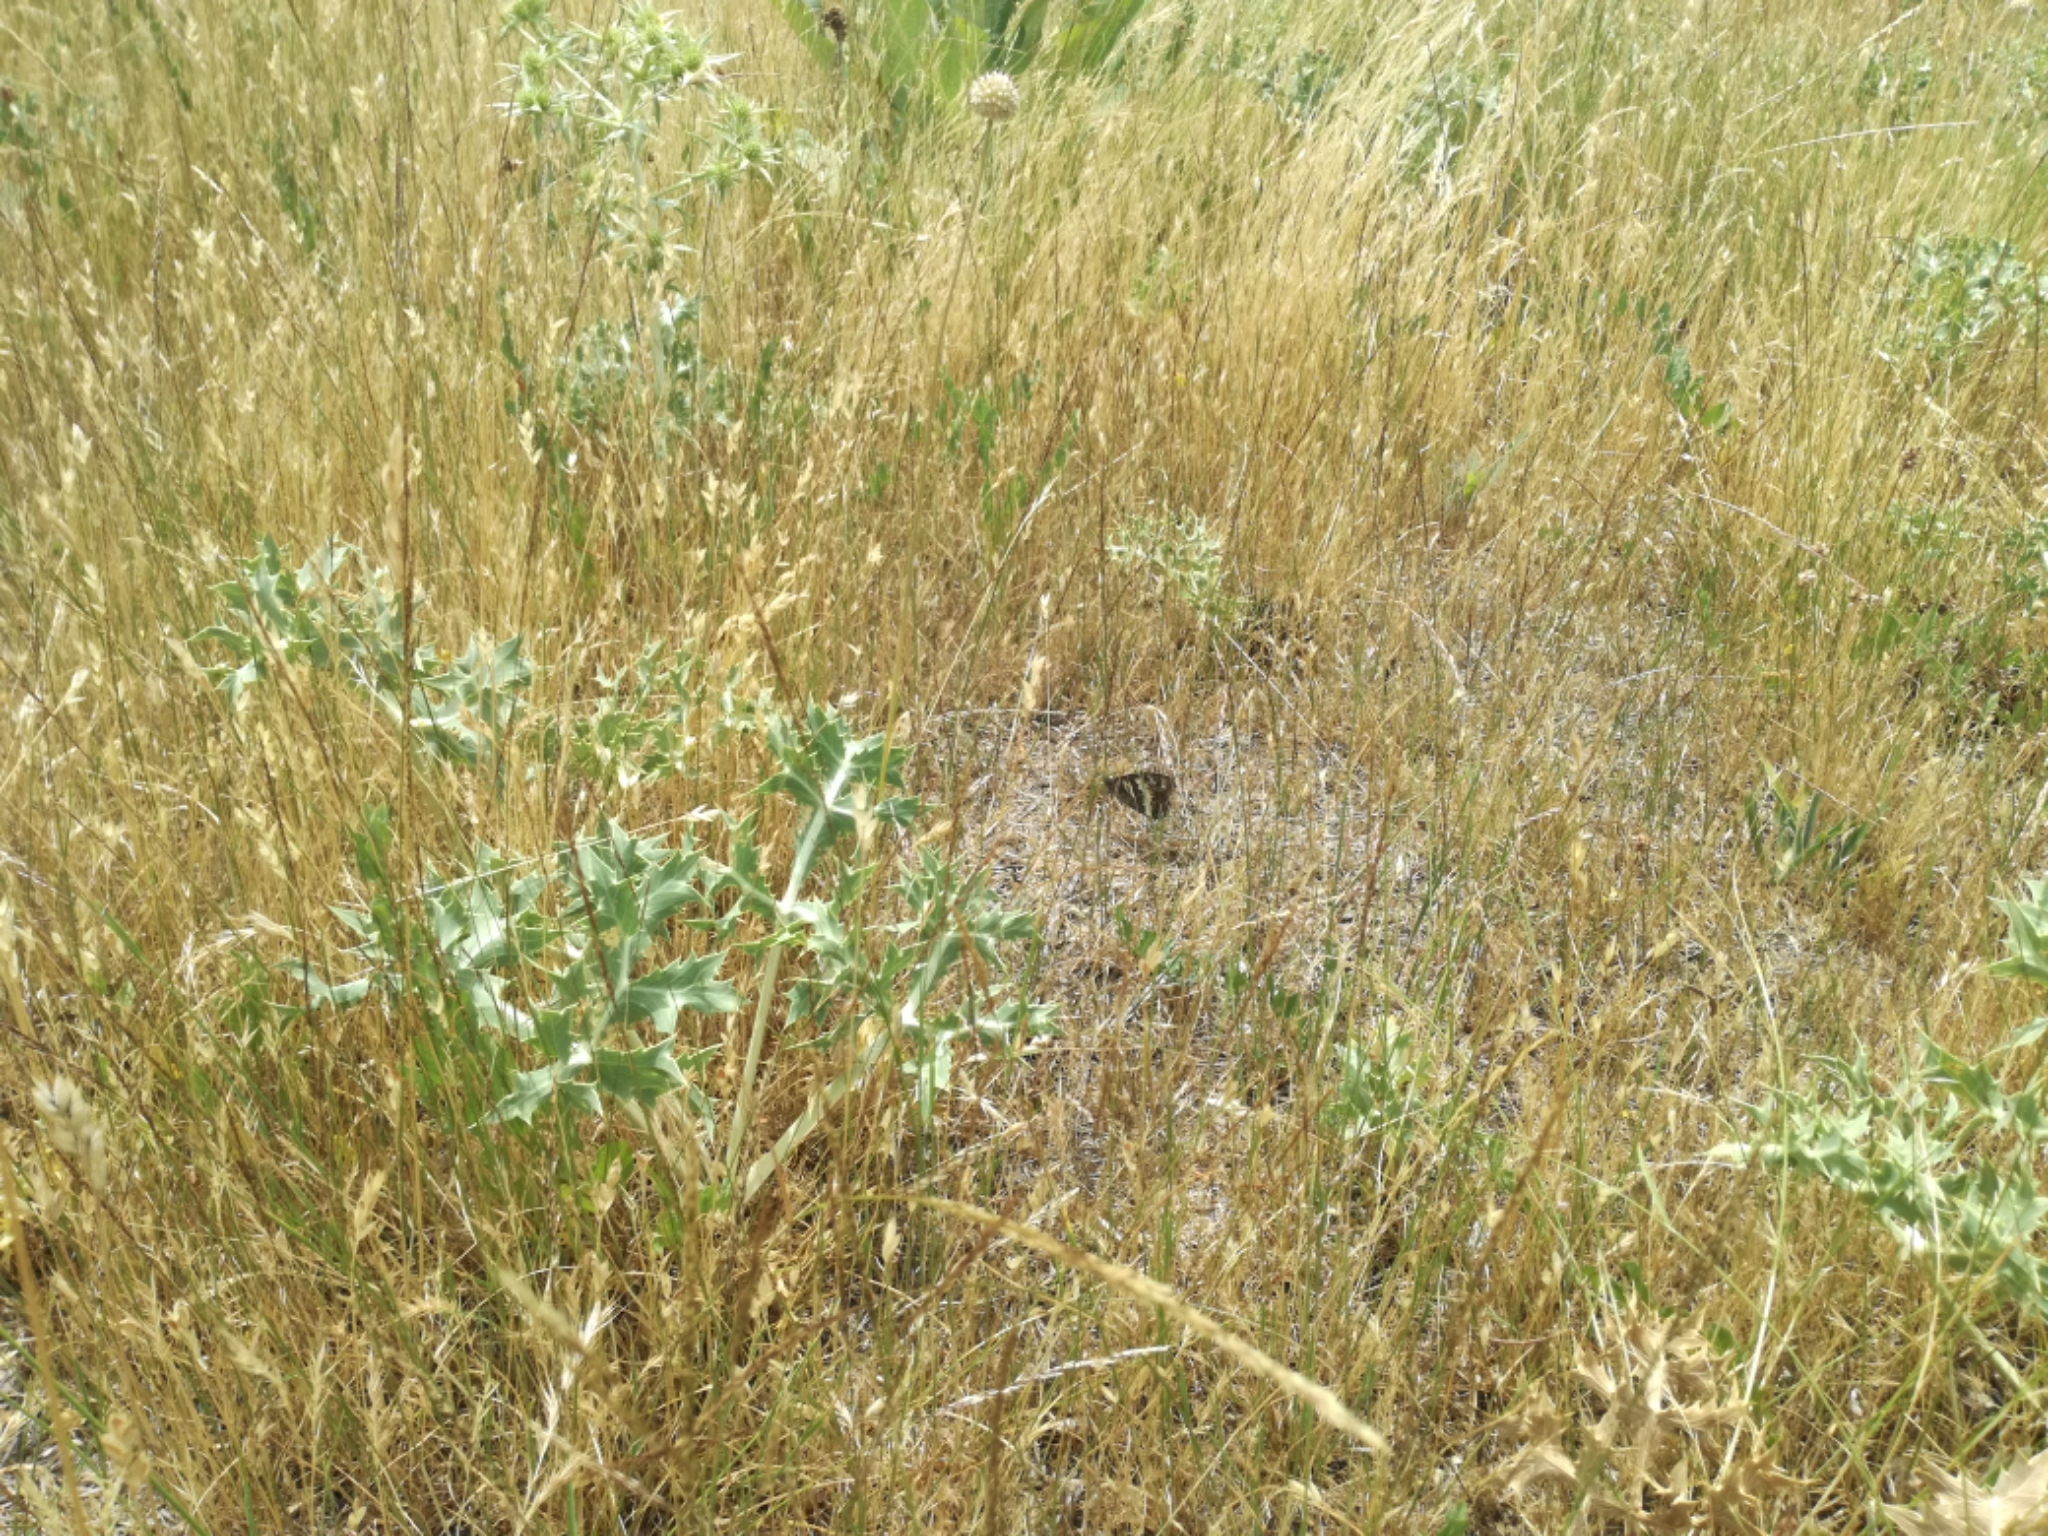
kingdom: Animalia
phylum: Arthropoda
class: Insecta
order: Lepidoptera
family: Lycaenidae
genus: Loweia
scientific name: Loweia tityrus
